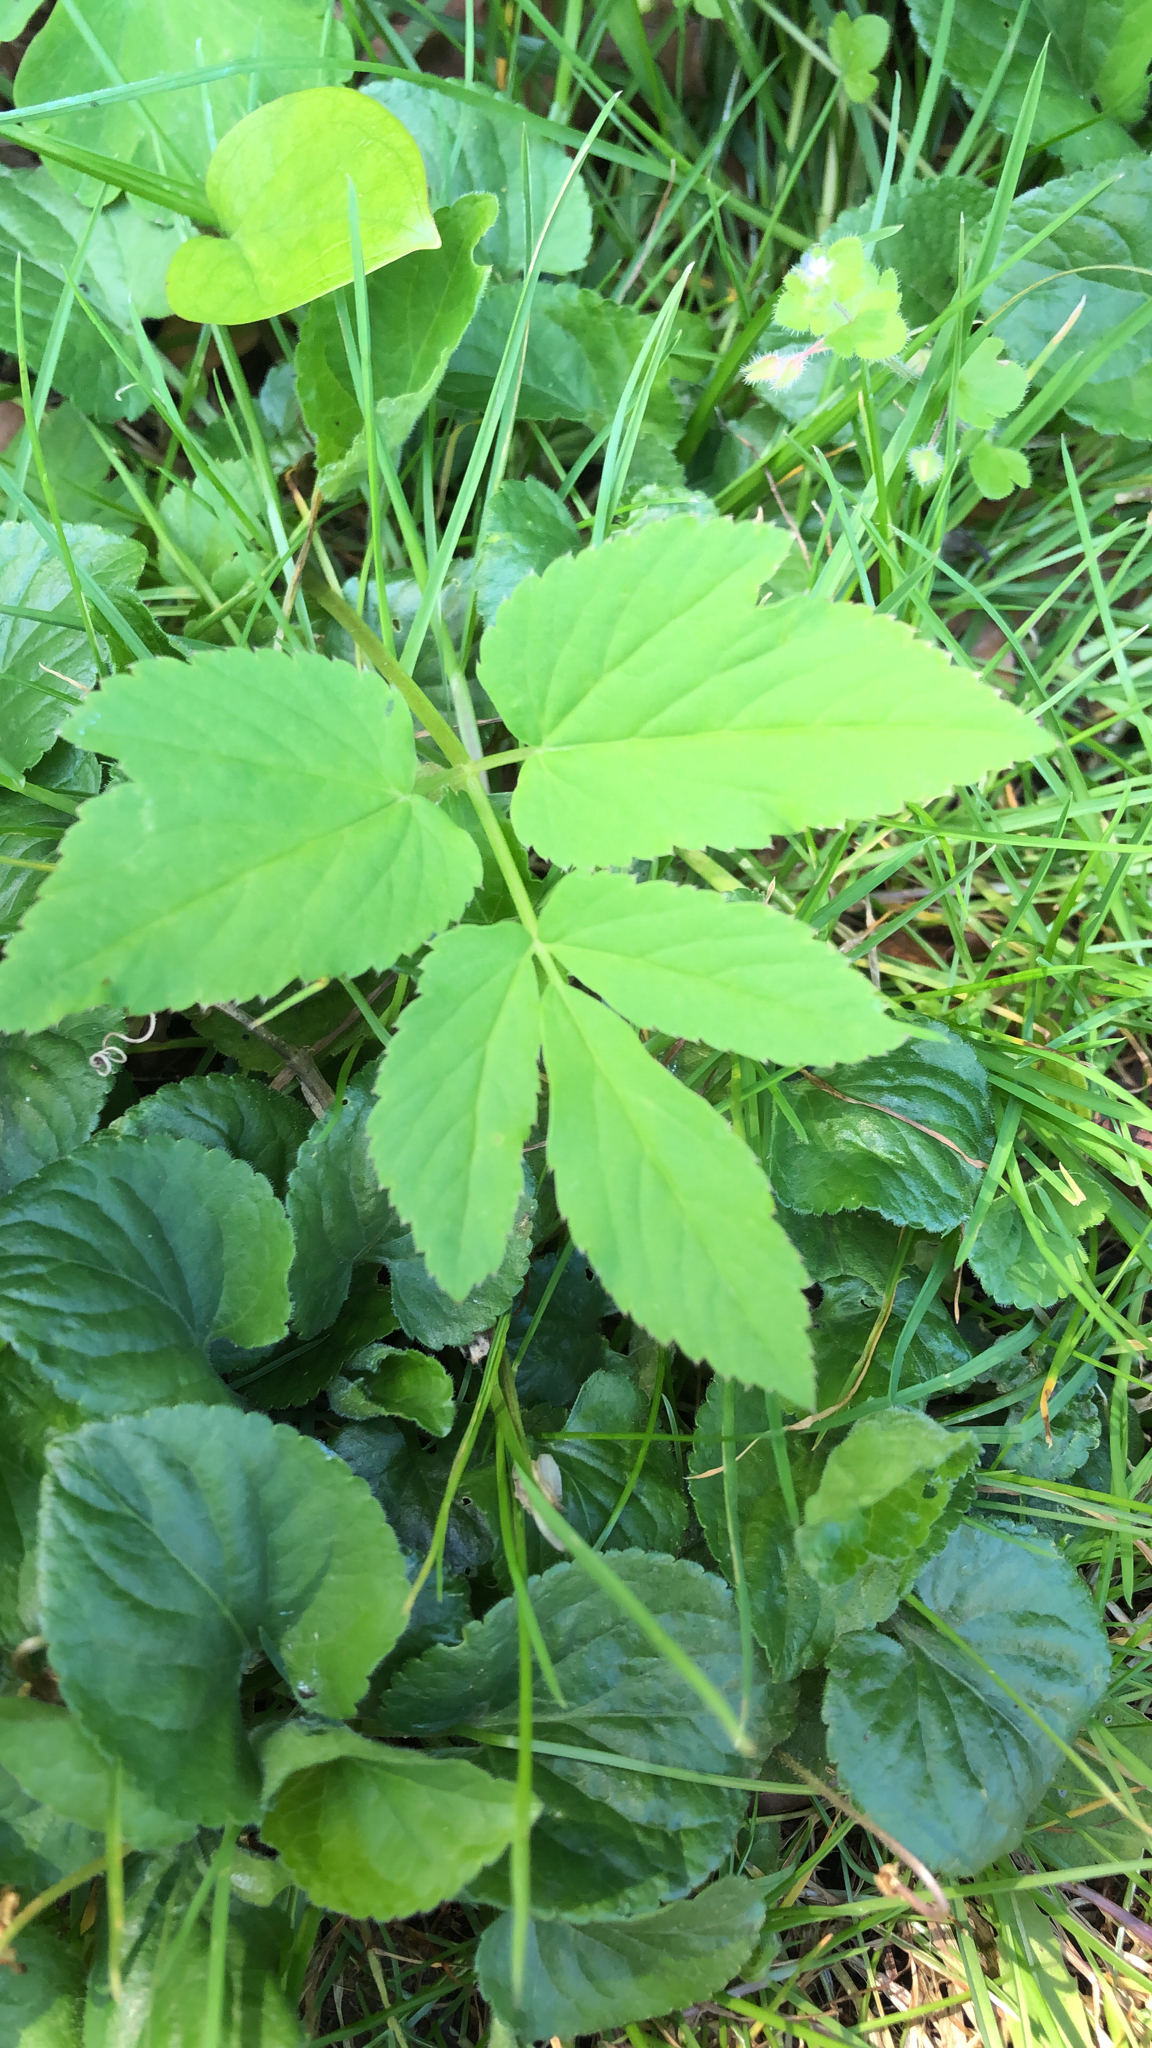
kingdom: Plantae
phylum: Tracheophyta
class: Magnoliopsida
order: Apiales
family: Apiaceae
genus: Aegopodium
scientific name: Aegopodium podagraria
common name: Ground-elder
